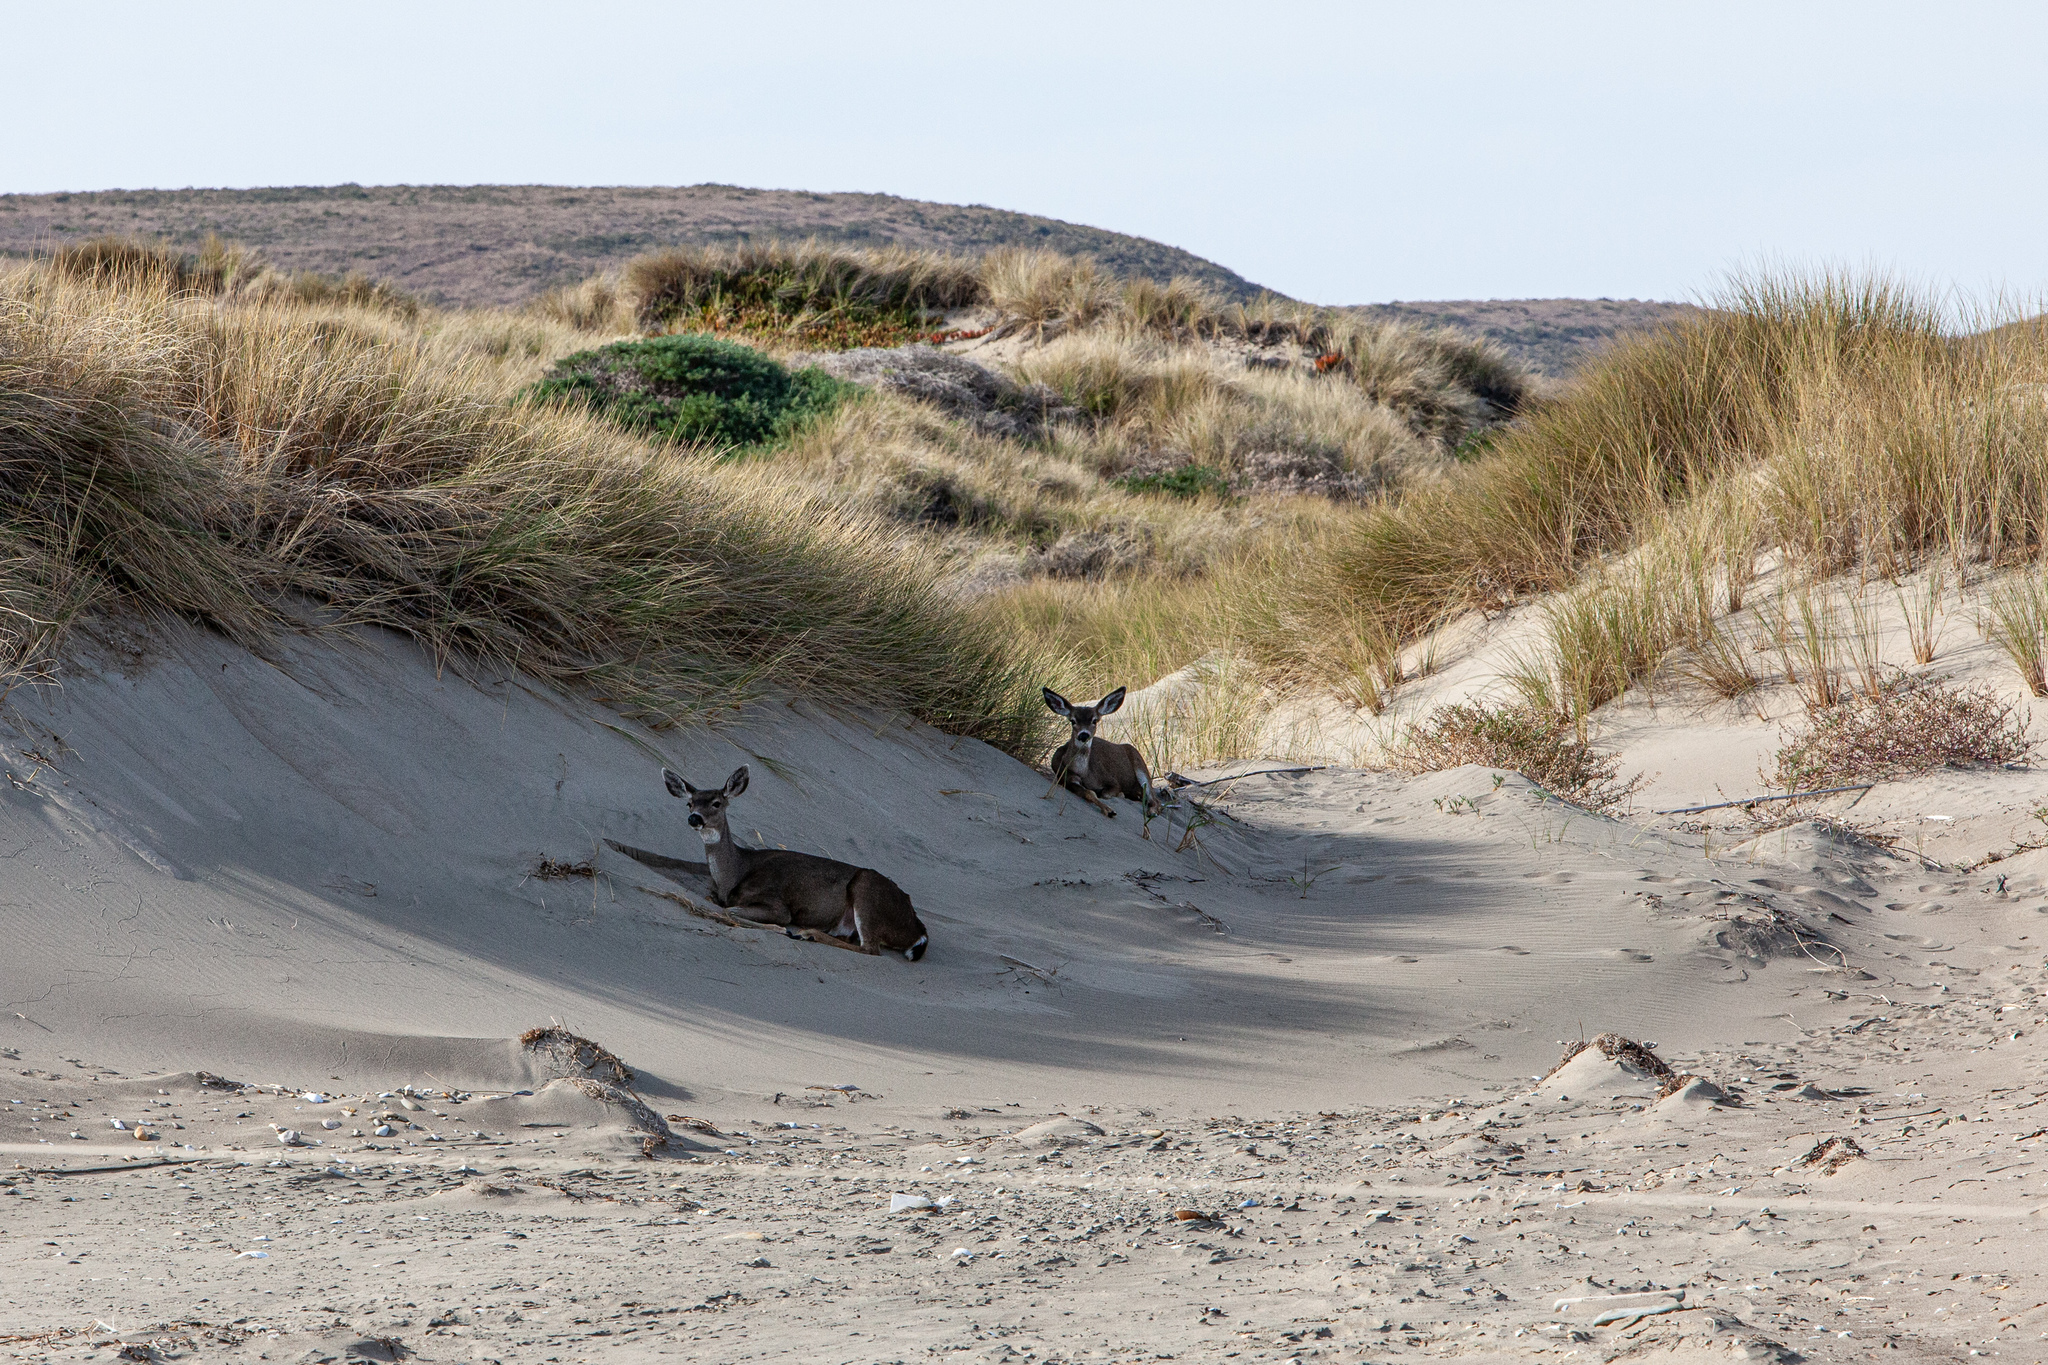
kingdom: Animalia
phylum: Chordata
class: Mammalia
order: Artiodactyla
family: Cervidae
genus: Odocoileus
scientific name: Odocoileus hemionus
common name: Mule deer
